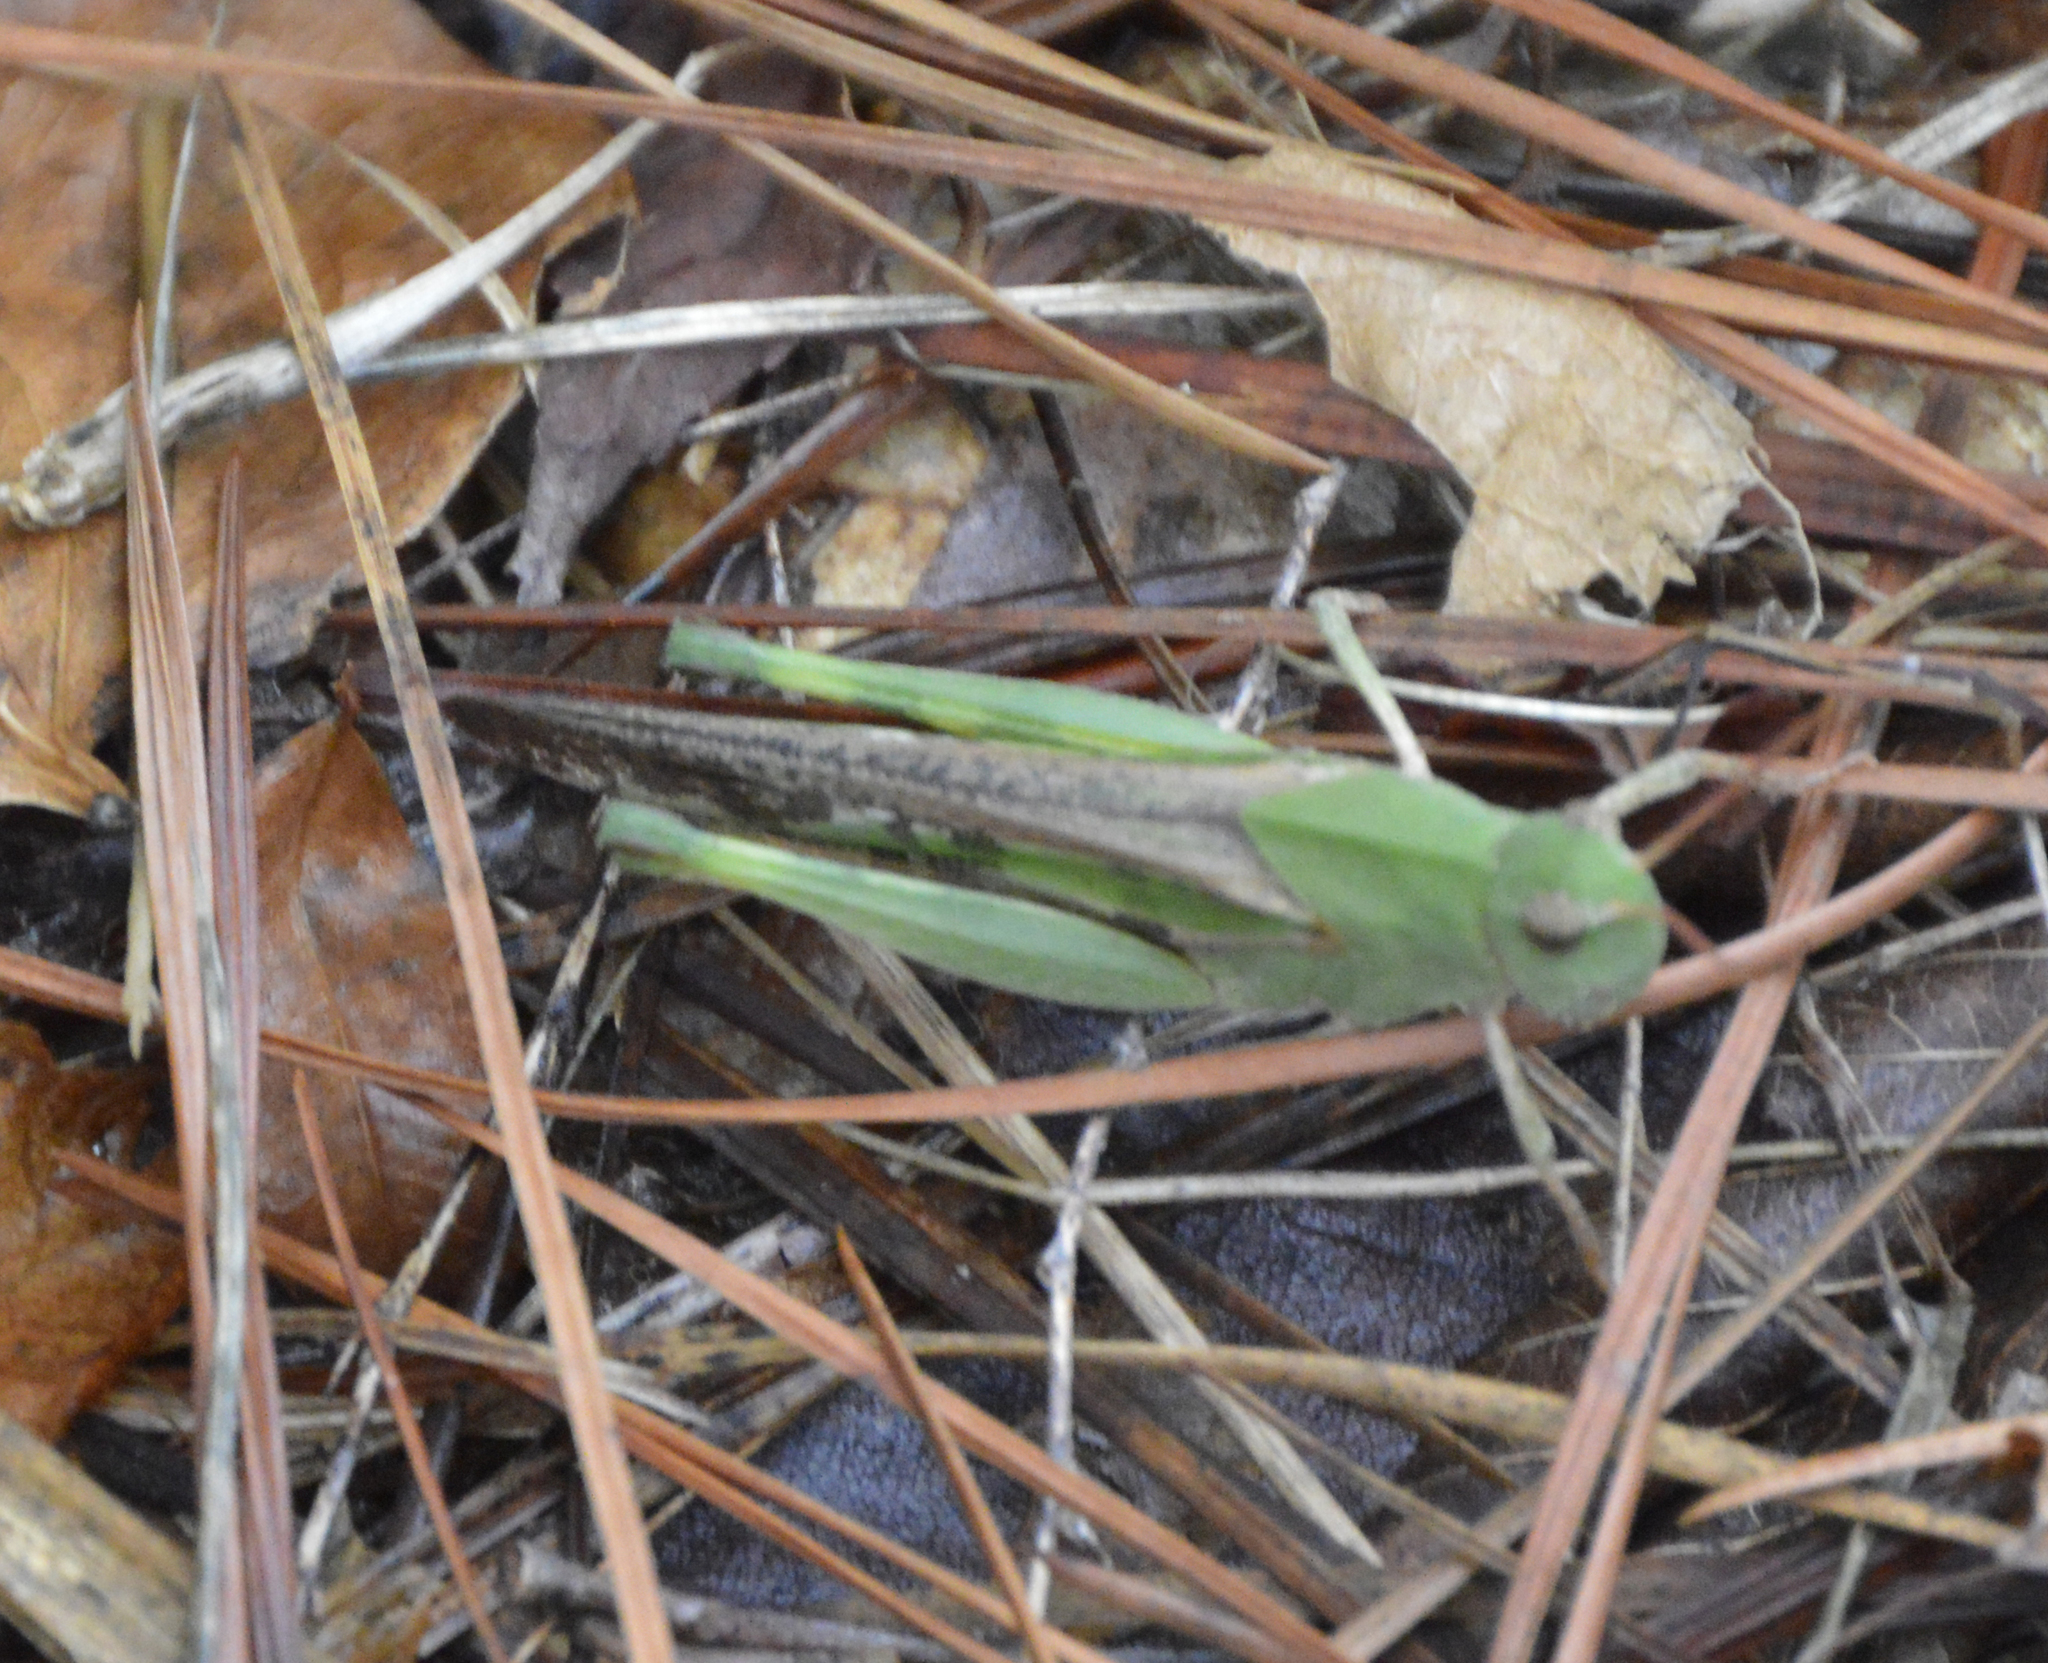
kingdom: Animalia
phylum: Arthropoda
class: Insecta
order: Orthoptera
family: Acrididae
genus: Chortophaga
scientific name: Chortophaga viridifasciata
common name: Green-striped grasshopper
